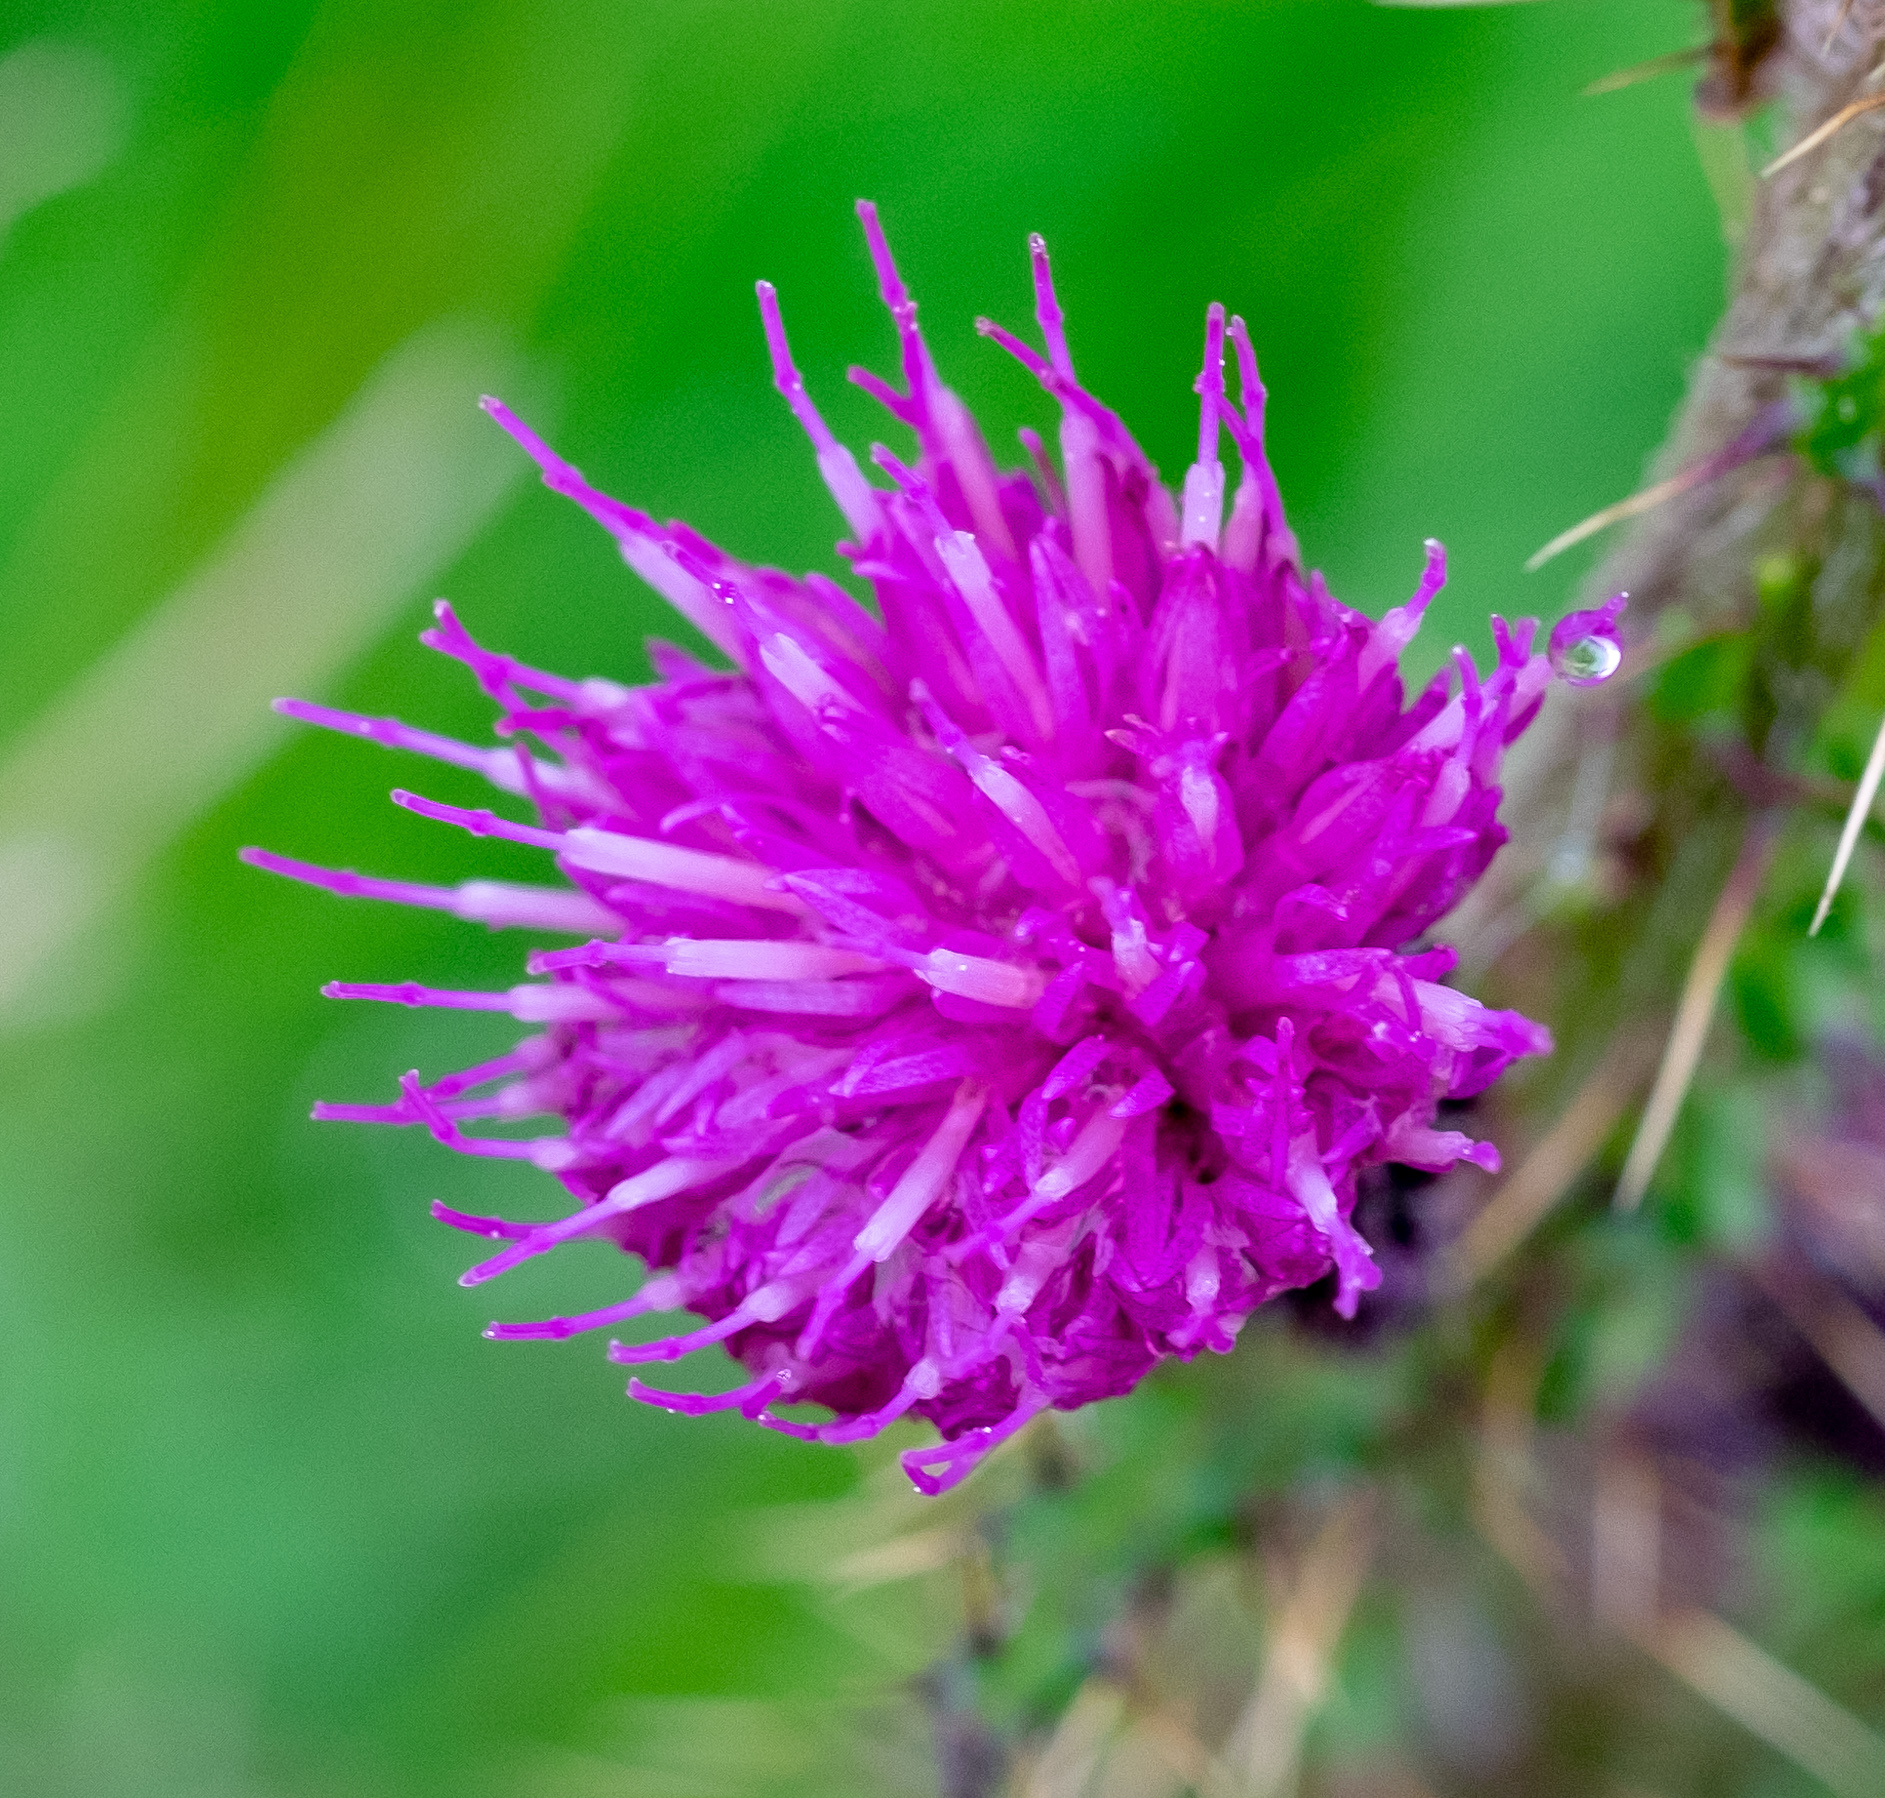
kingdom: Plantae
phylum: Tracheophyta
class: Magnoliopsida
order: Asterales
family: Asteraceae
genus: Cirsium
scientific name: Cirsium palustre
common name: Marsh thistle
